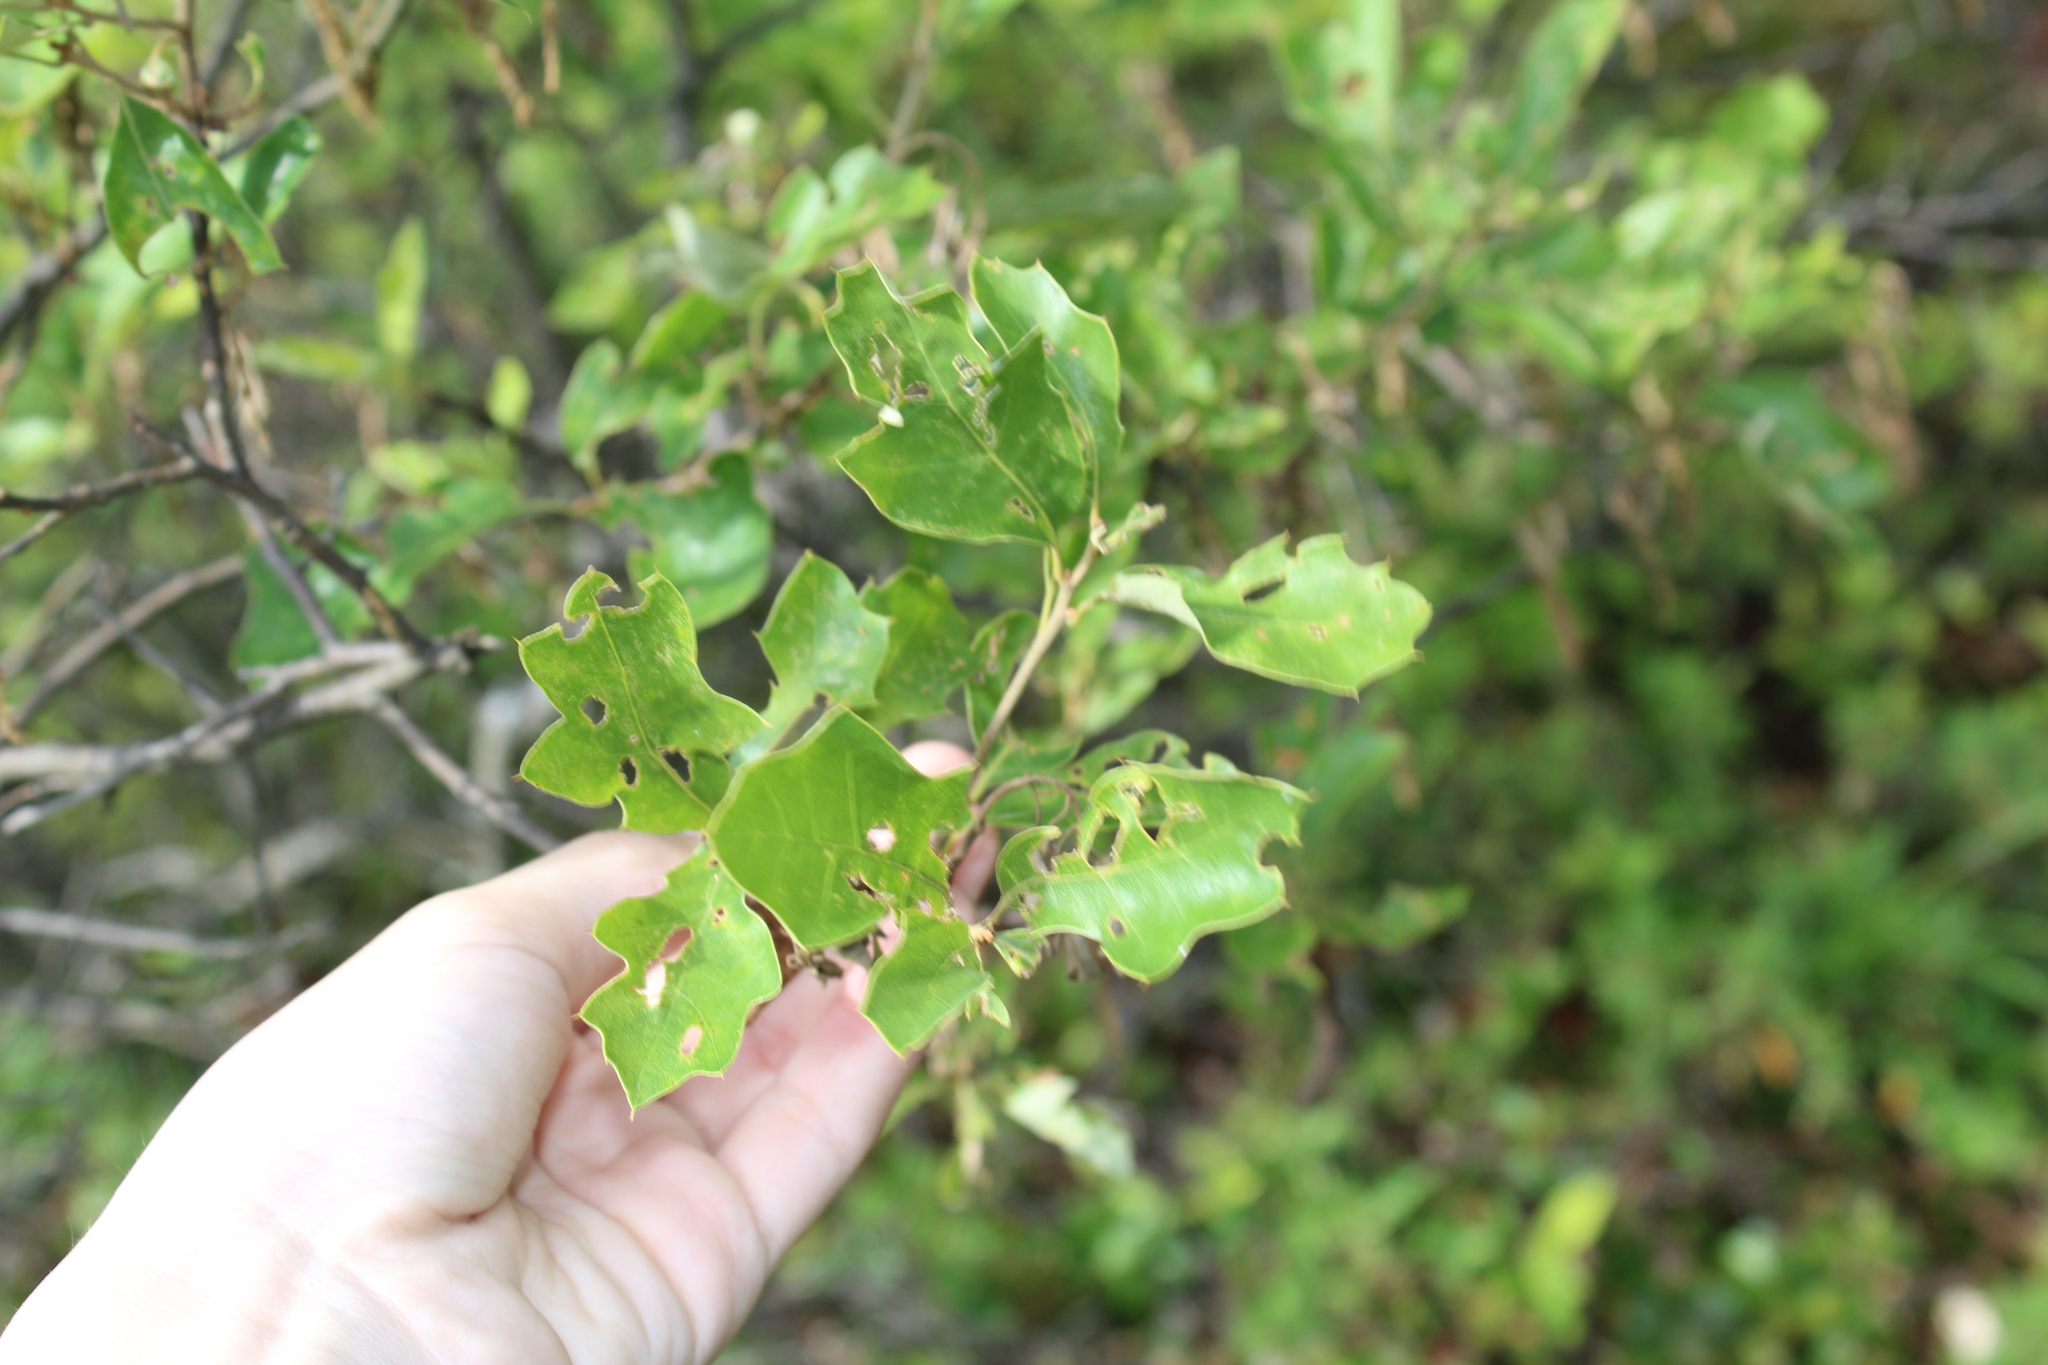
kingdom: Plantae
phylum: Tracheophyta
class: Magnoliopsida
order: Fagales
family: Fagaceae
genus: Quercus
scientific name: Quercus ilicifolia
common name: Bear oak
